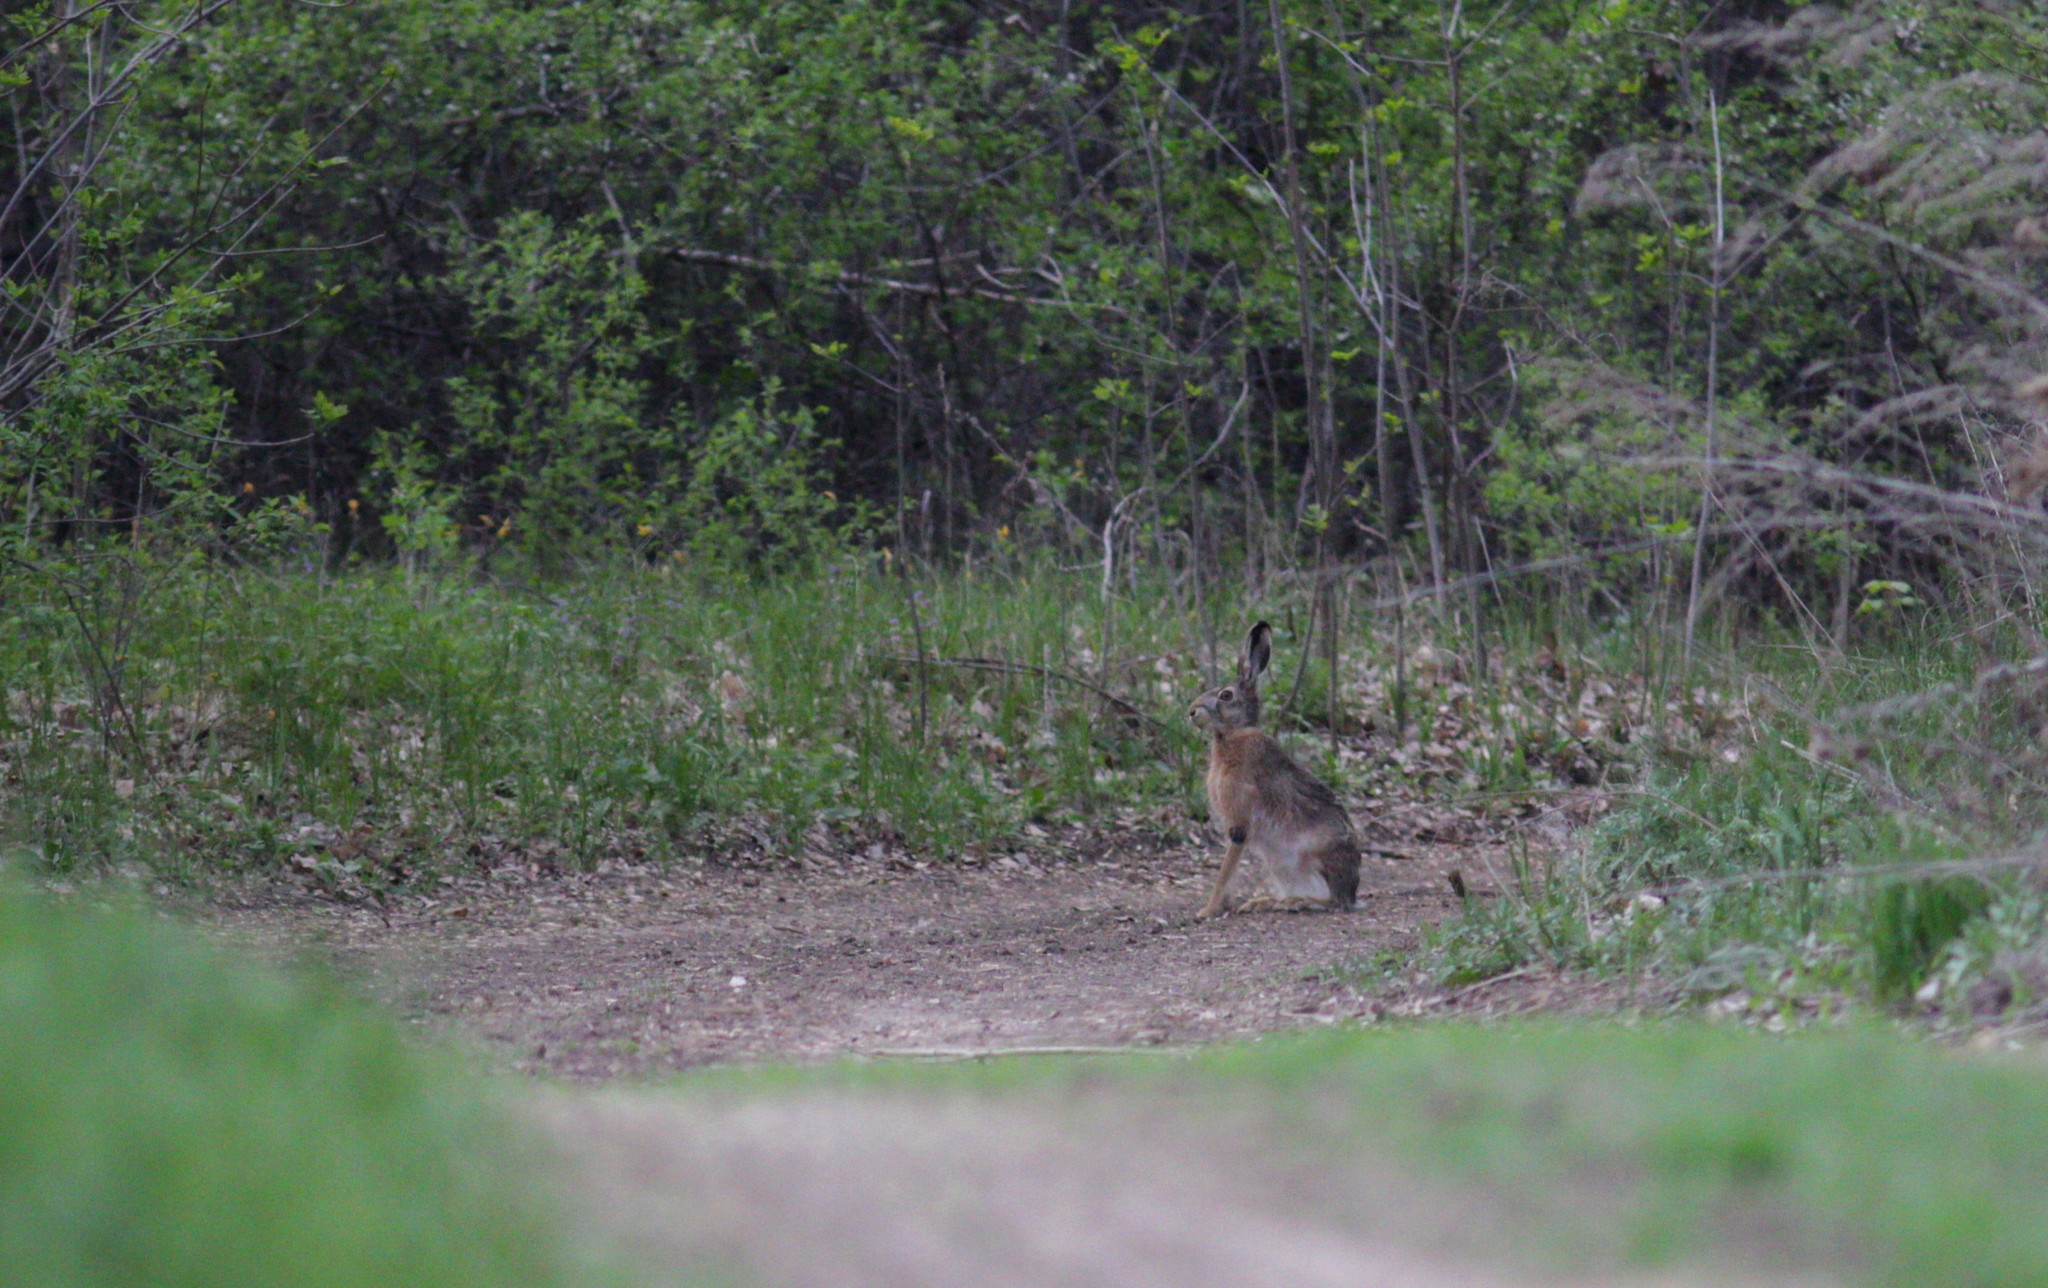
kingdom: Animalia
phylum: Chordata
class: Mammalia
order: Lagomorpha
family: Leporidae
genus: Lepus
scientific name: Lepus europaeus
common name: European hare
